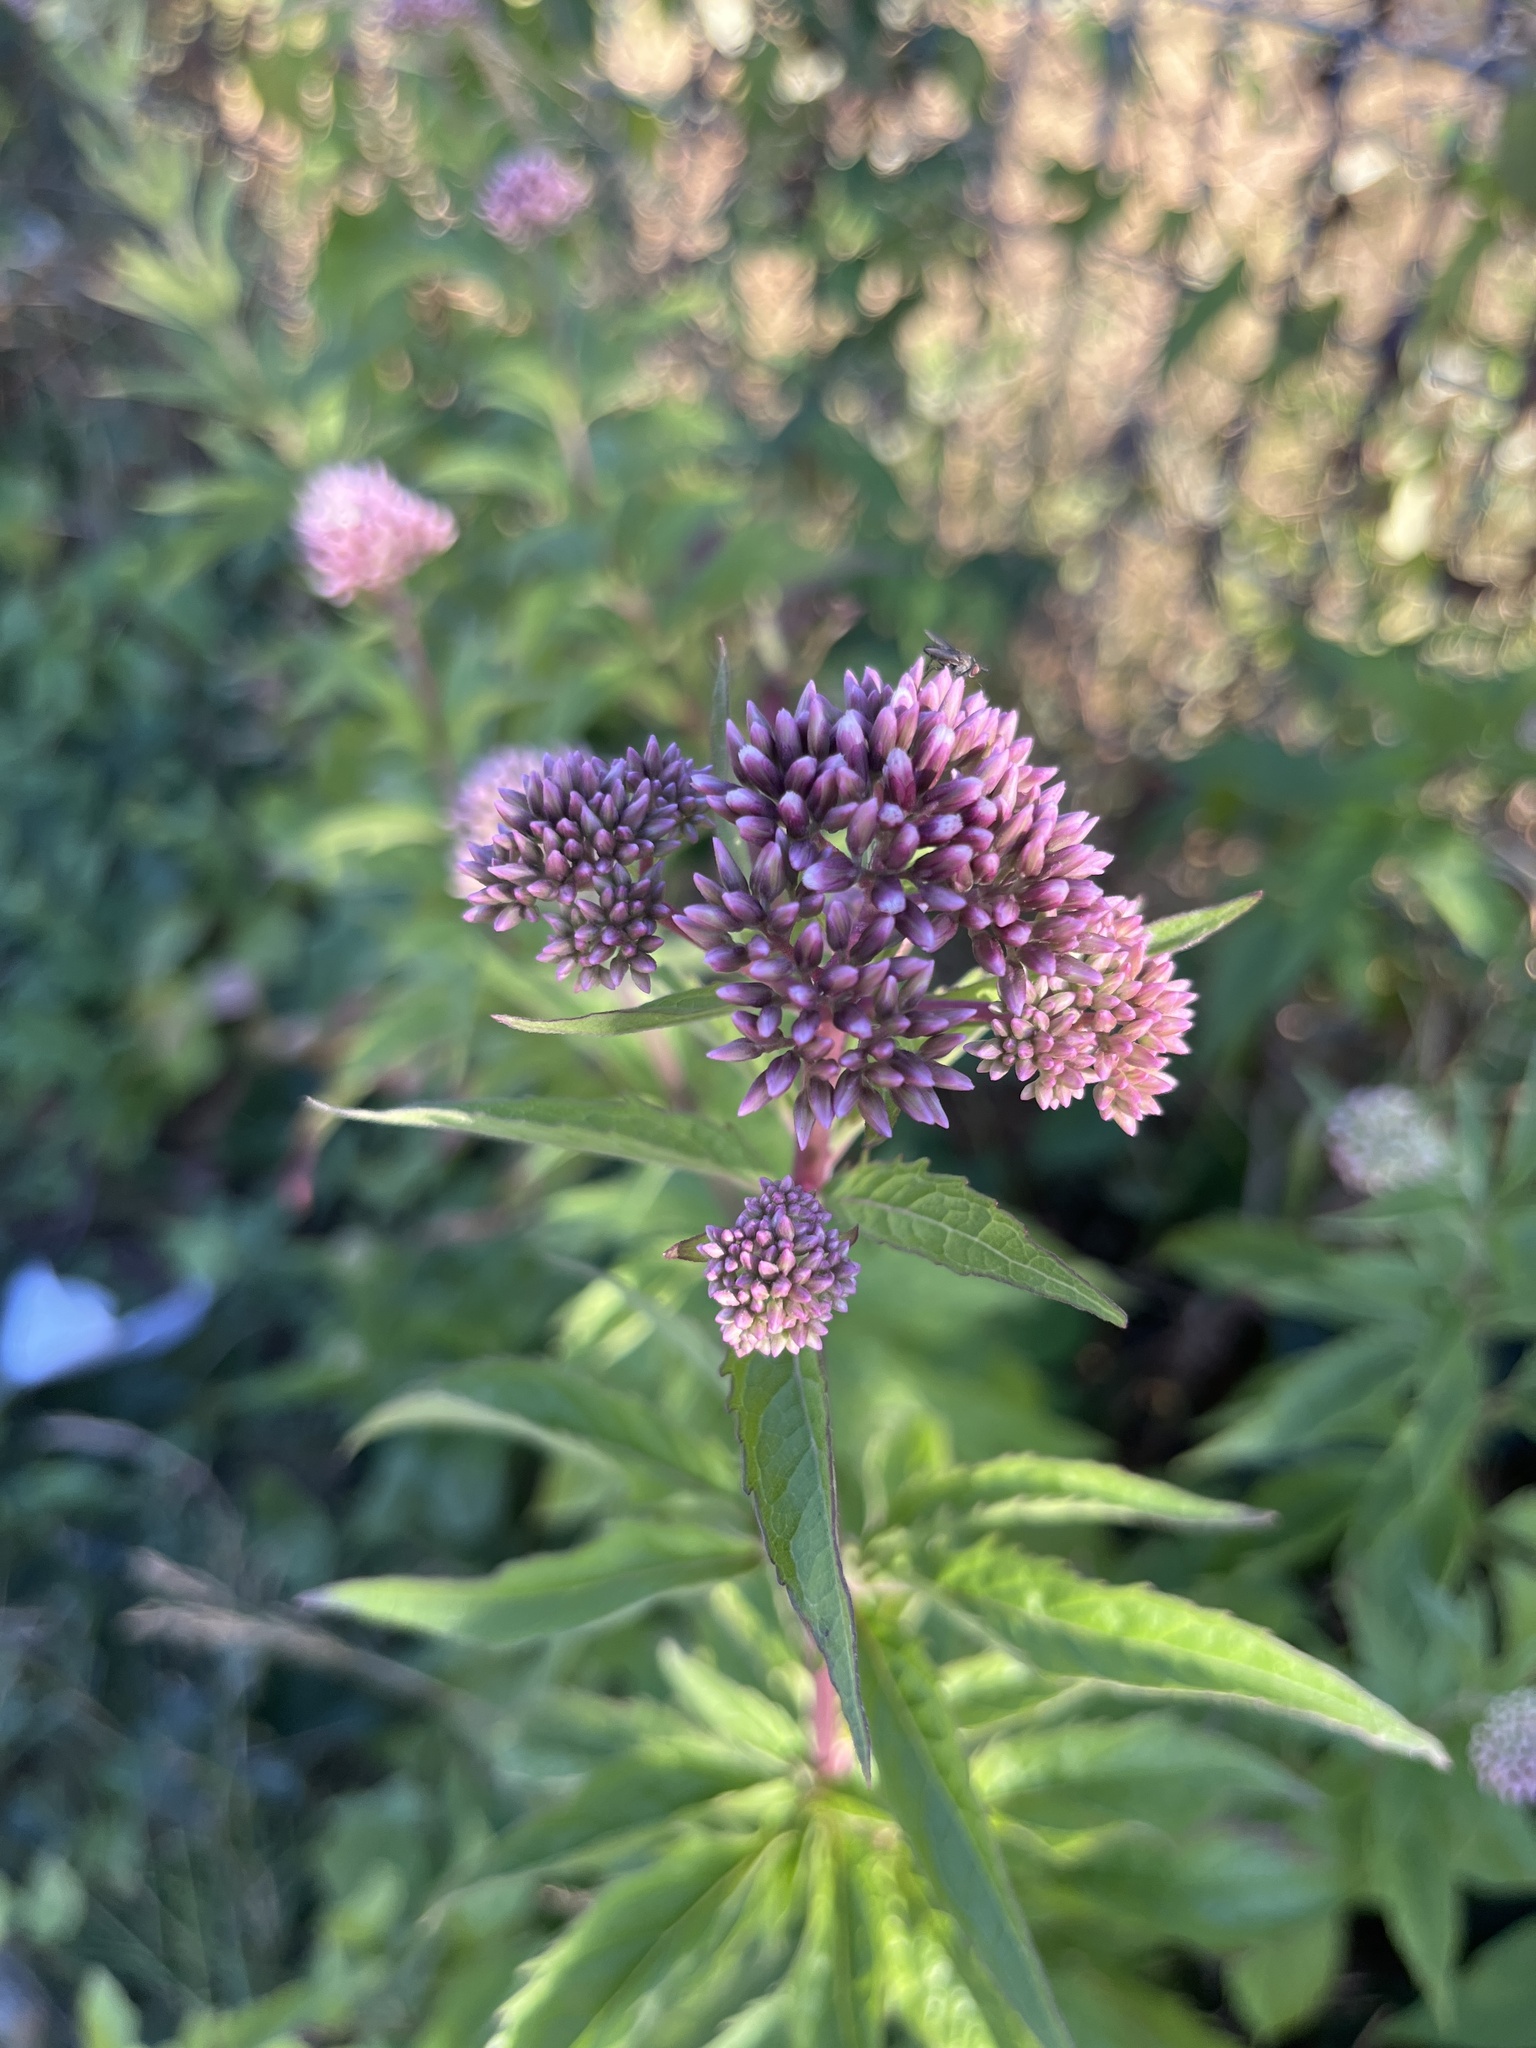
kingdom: Plantae
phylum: Tracheophyta
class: Magnoliopsida
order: Asterales
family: Asteraceae
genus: Eupatorium
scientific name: Eupatorium cannabinum
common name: Hemp-agrimony
